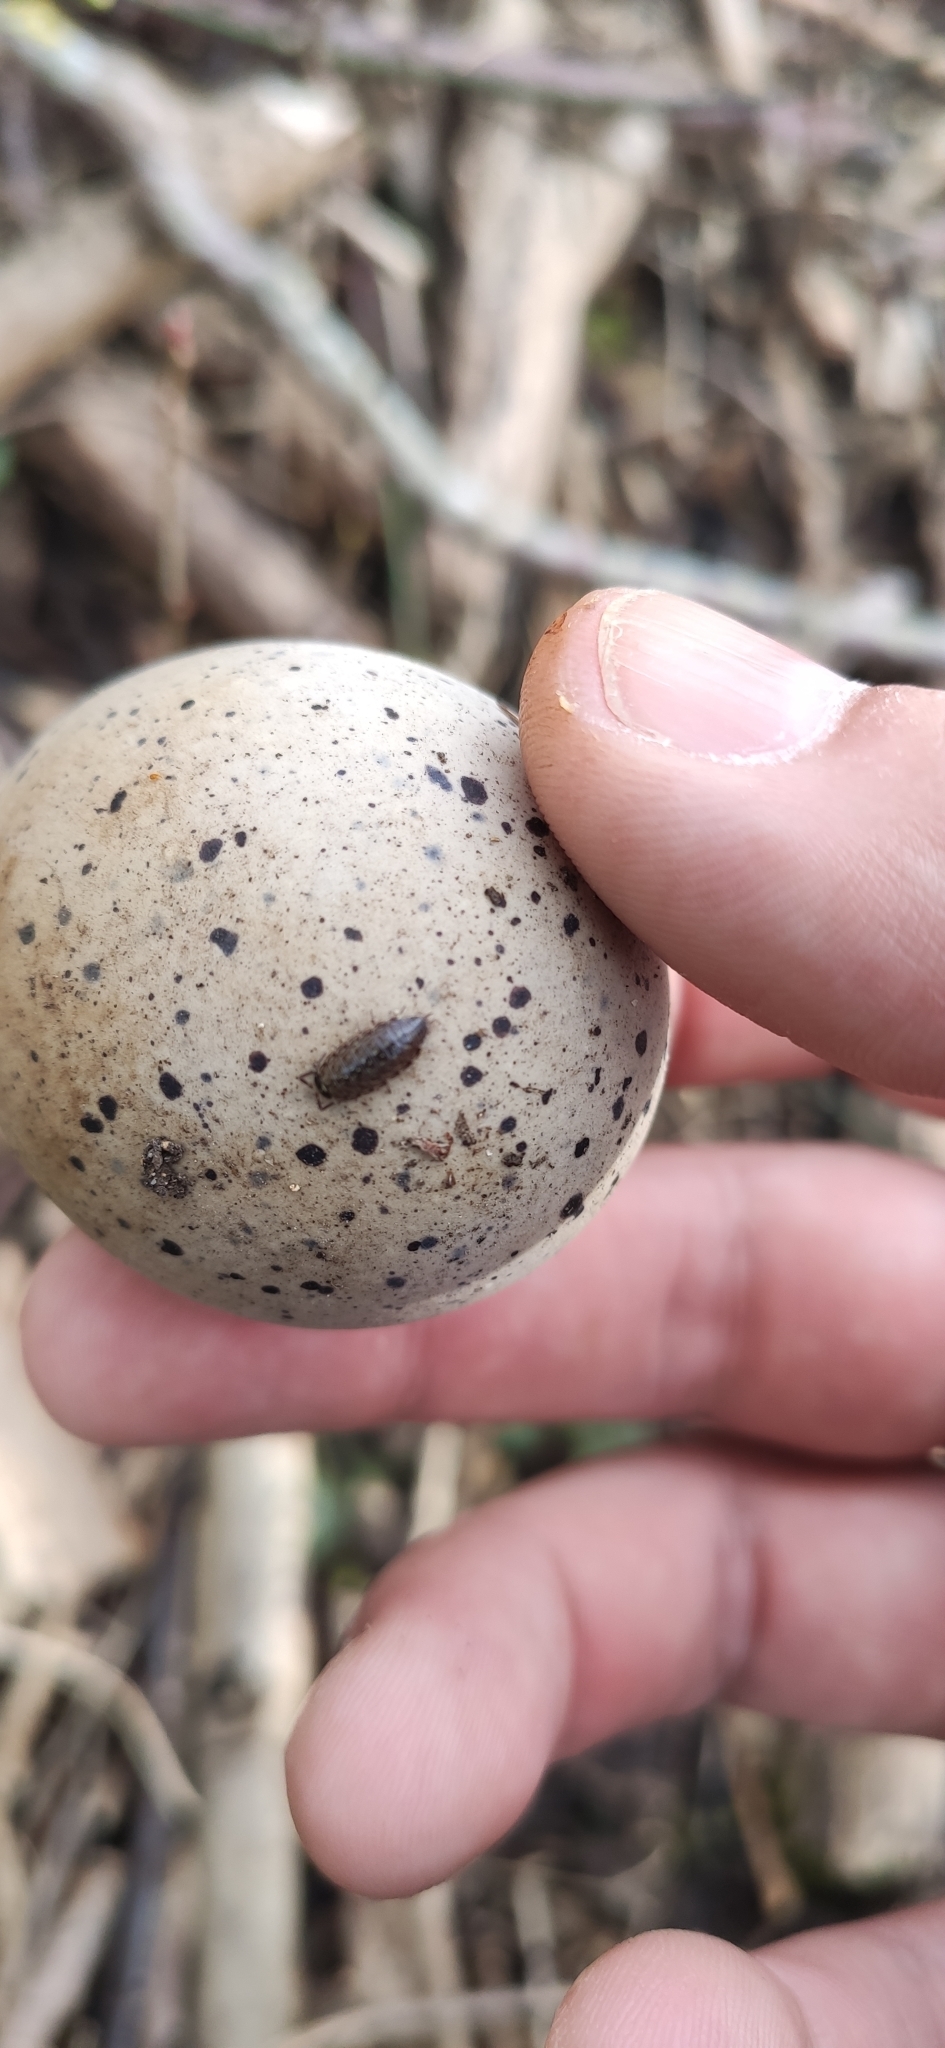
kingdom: Animalia
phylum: Arthropoda
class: Malacostraca
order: Isopoda
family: Philosciidae
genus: Philoscia
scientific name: Philoscia muscorum
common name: Common striped woodlouse
